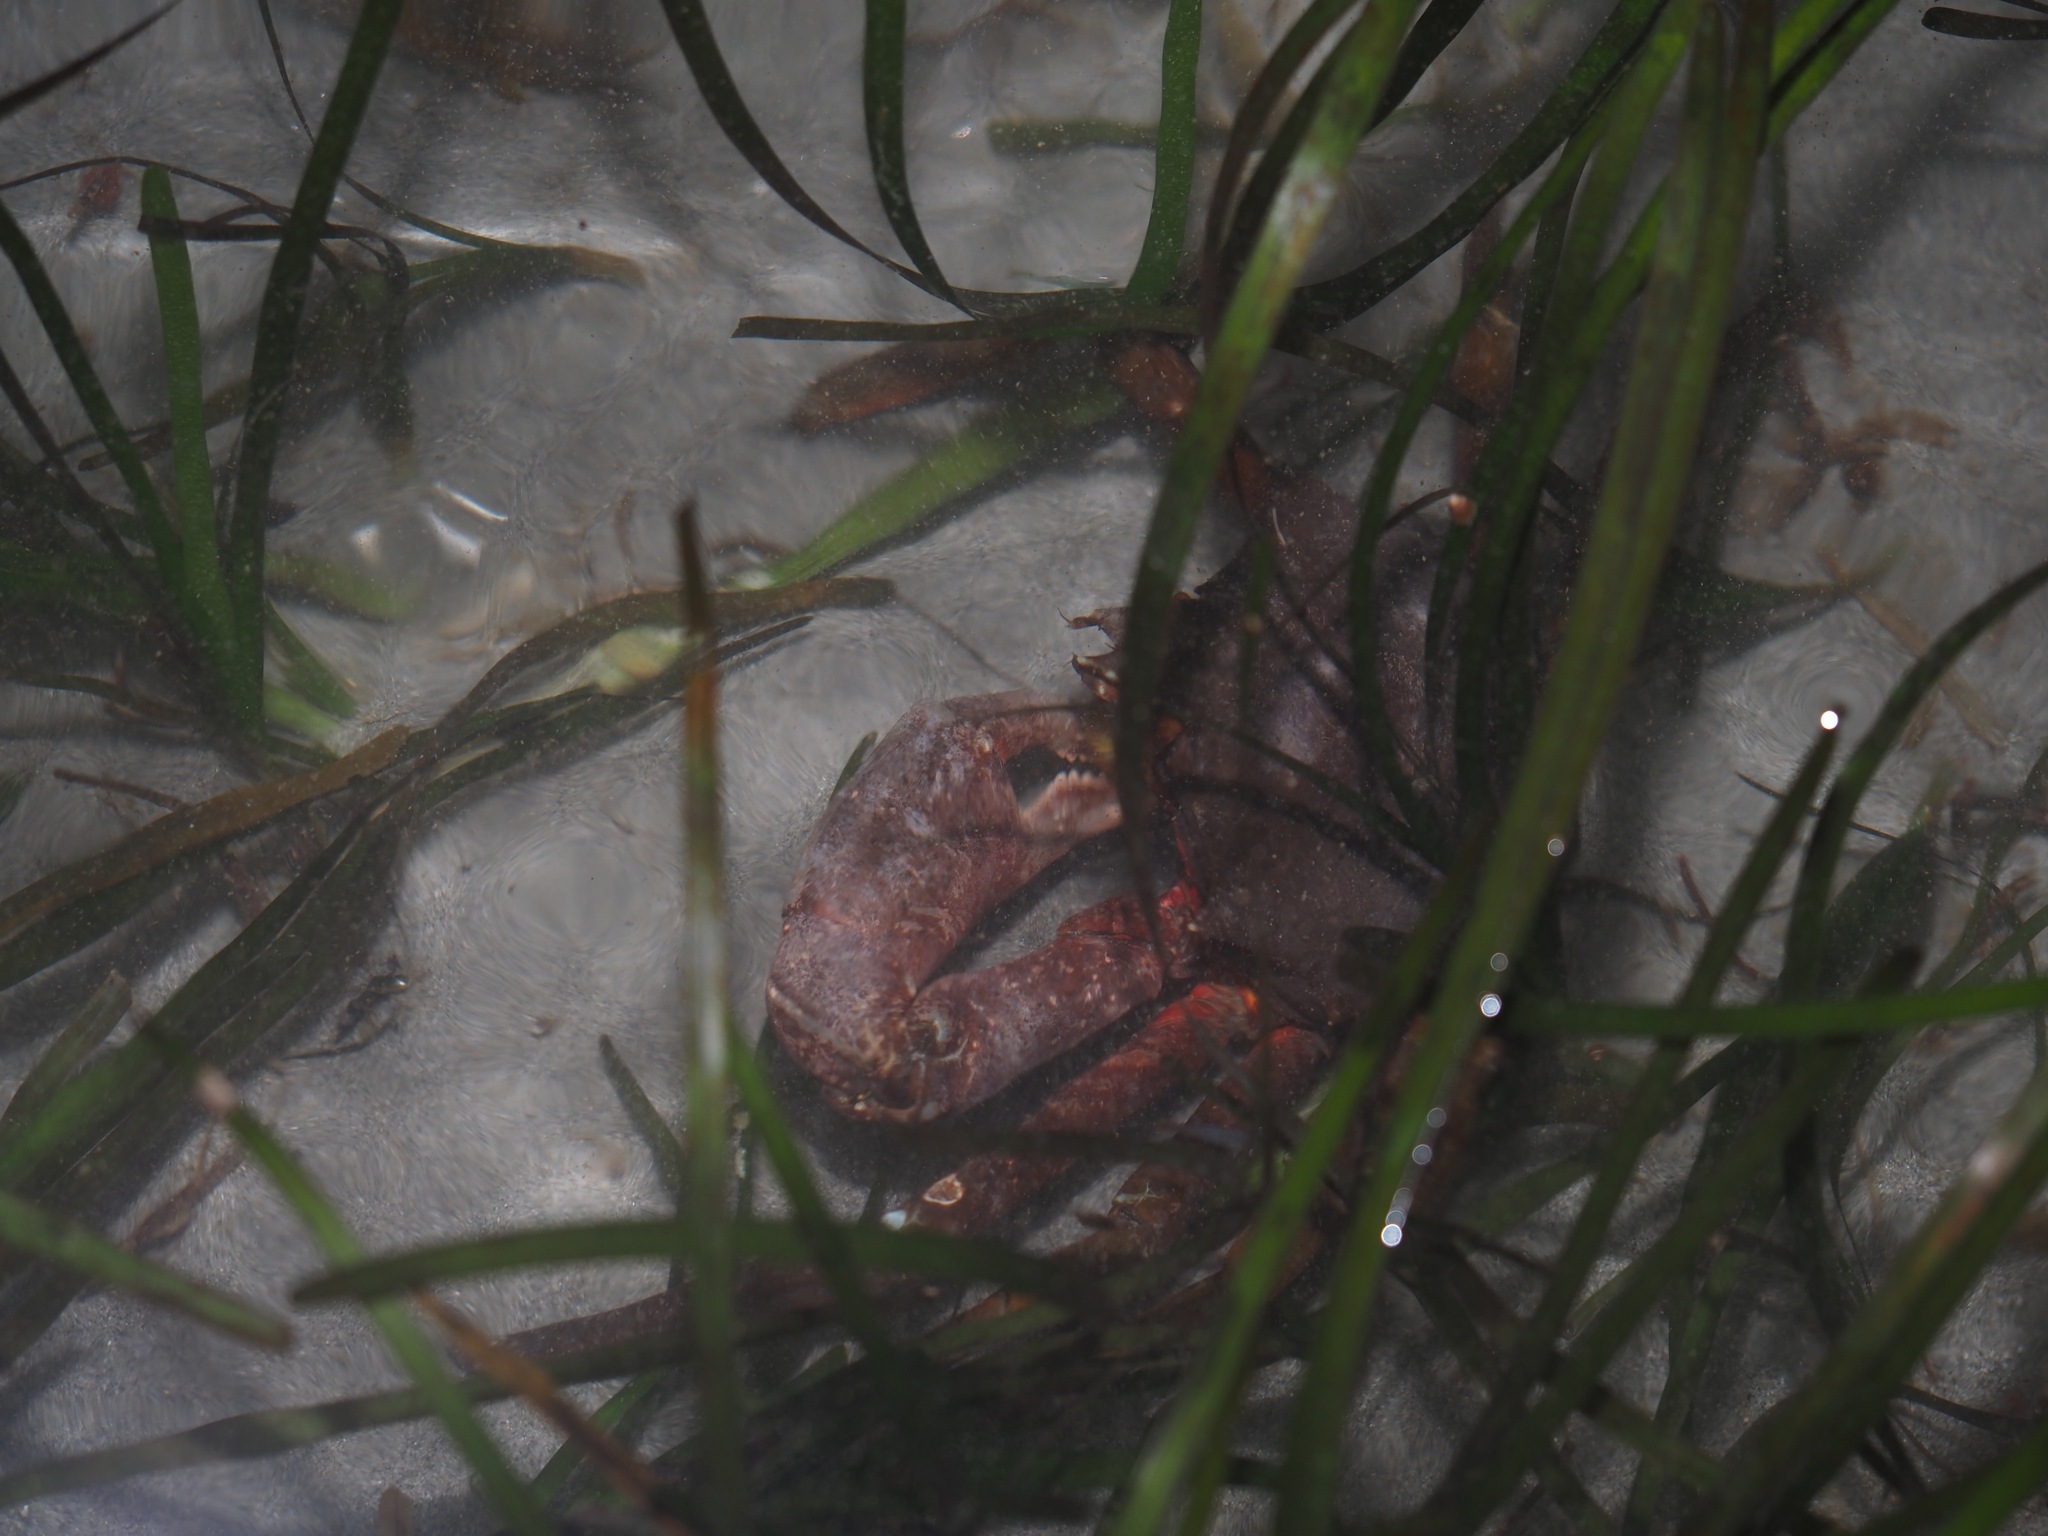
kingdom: Animalia
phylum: Arthropoda
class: Malacostraca
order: Decapoda
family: Epialtidae
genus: Pugettia
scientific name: Pugettia producta
